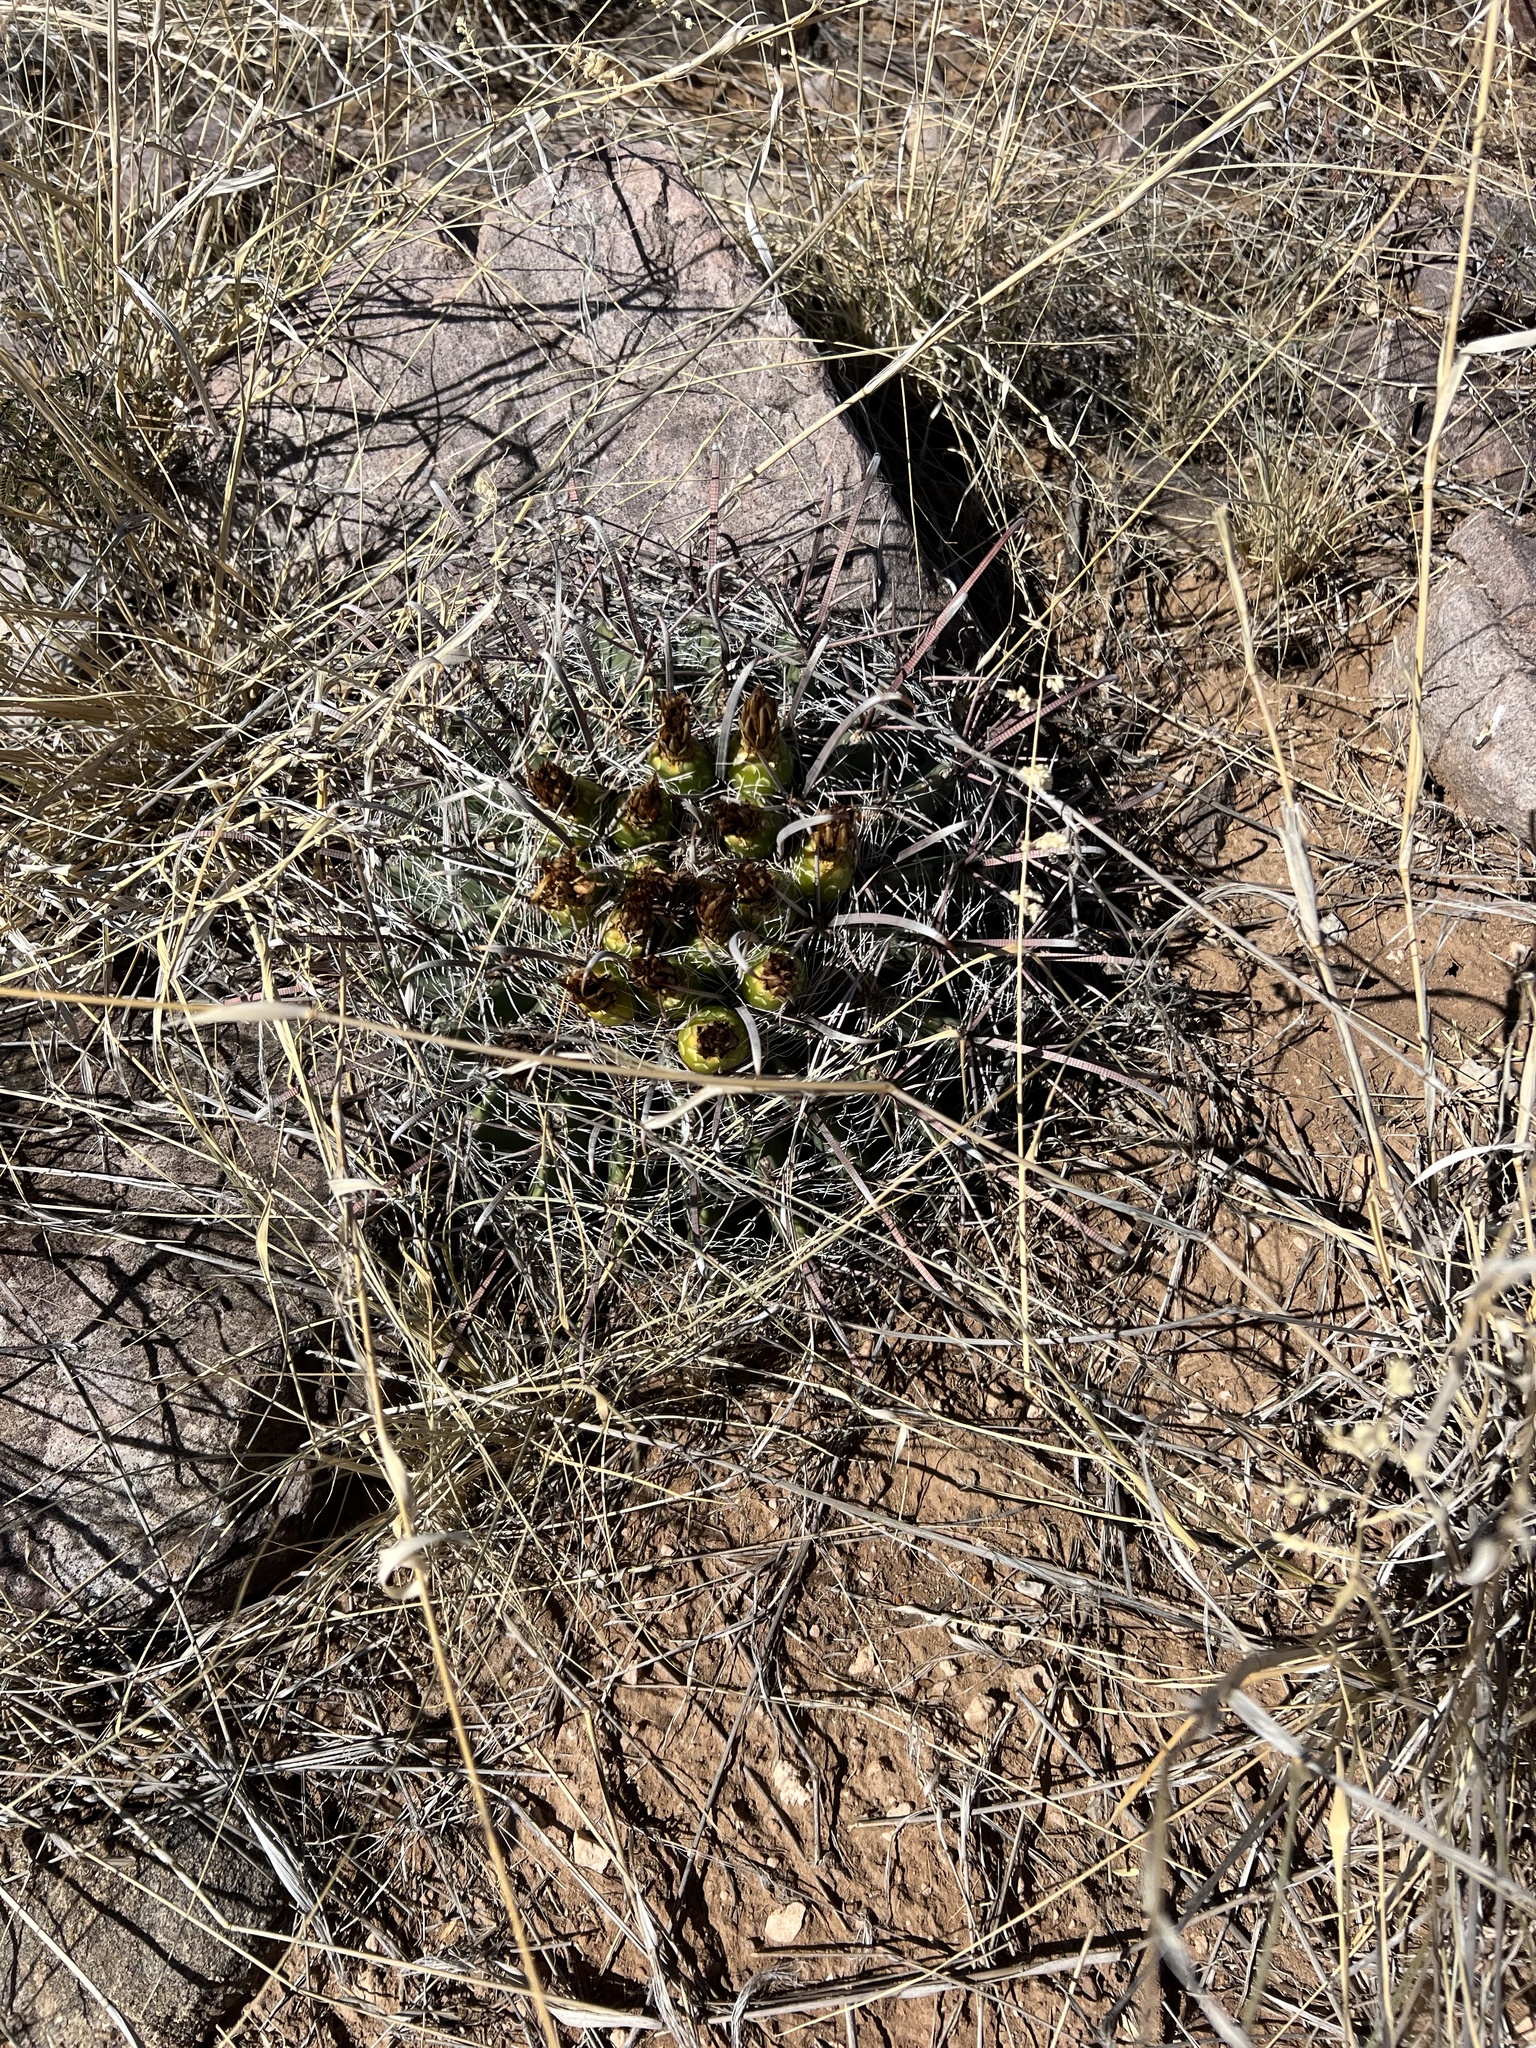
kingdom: Plantae
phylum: Tracheophyta
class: Magnoliopsida
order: Caryophyllales
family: Cactaceae
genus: Ferocactus
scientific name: Ferocactus wislizeni
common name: Candy barrel cactus
